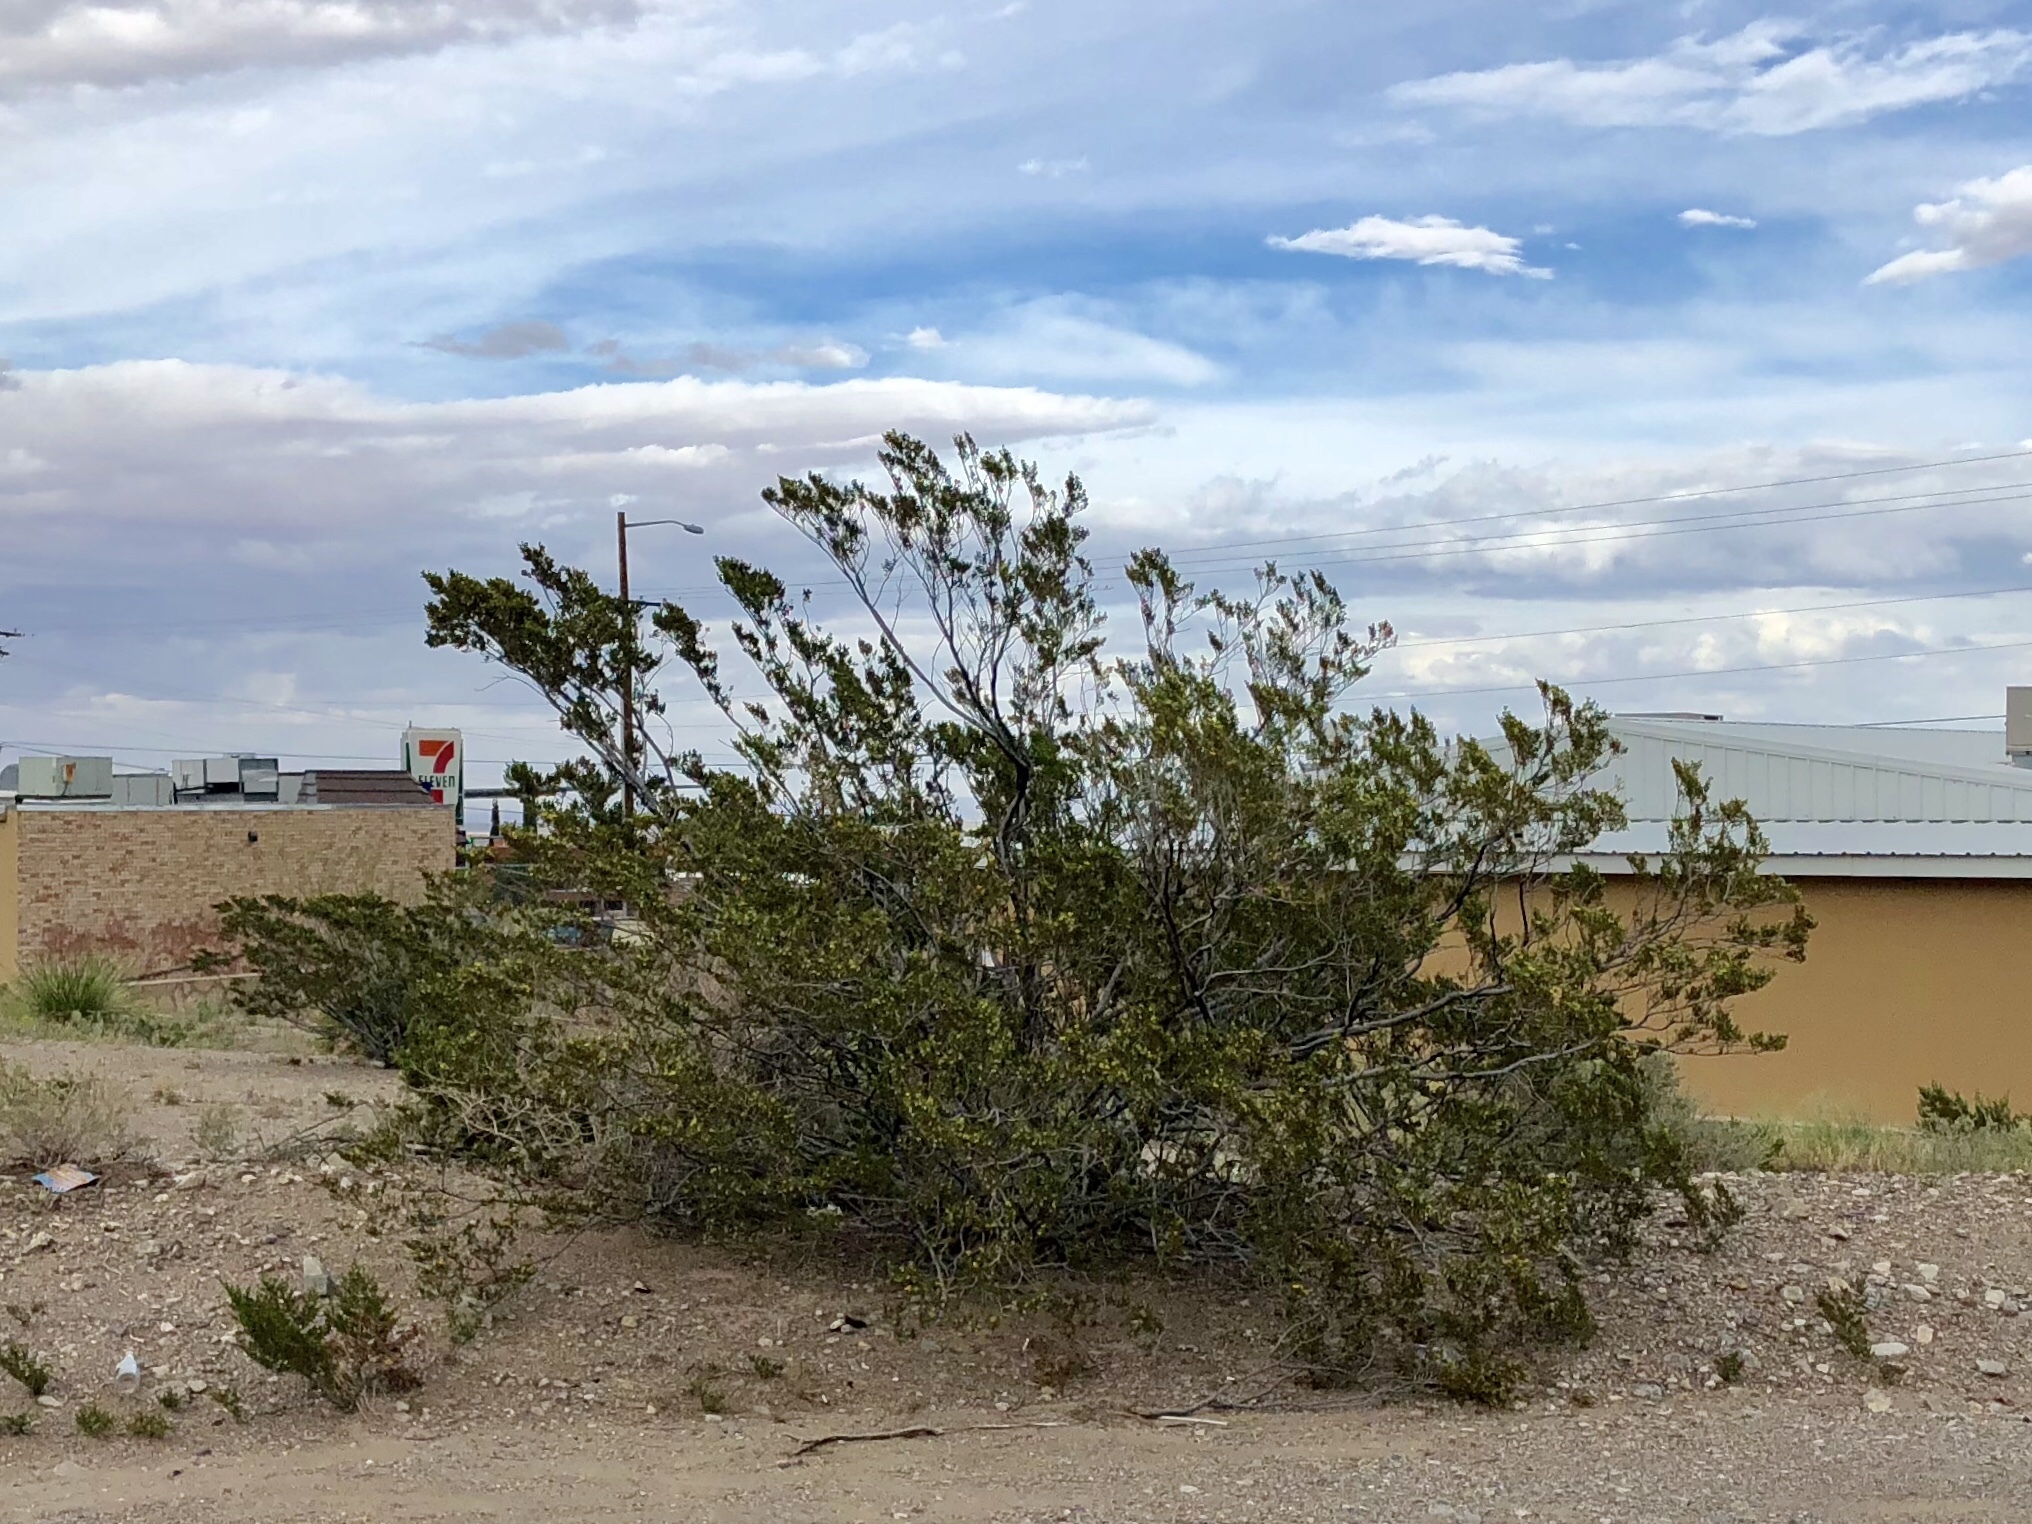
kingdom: Plantae
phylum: Tracheophyta
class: Magnoliopsida
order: Zygophyllales
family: Zygophyllaceae
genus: Larrea
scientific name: Larrea tridentata
